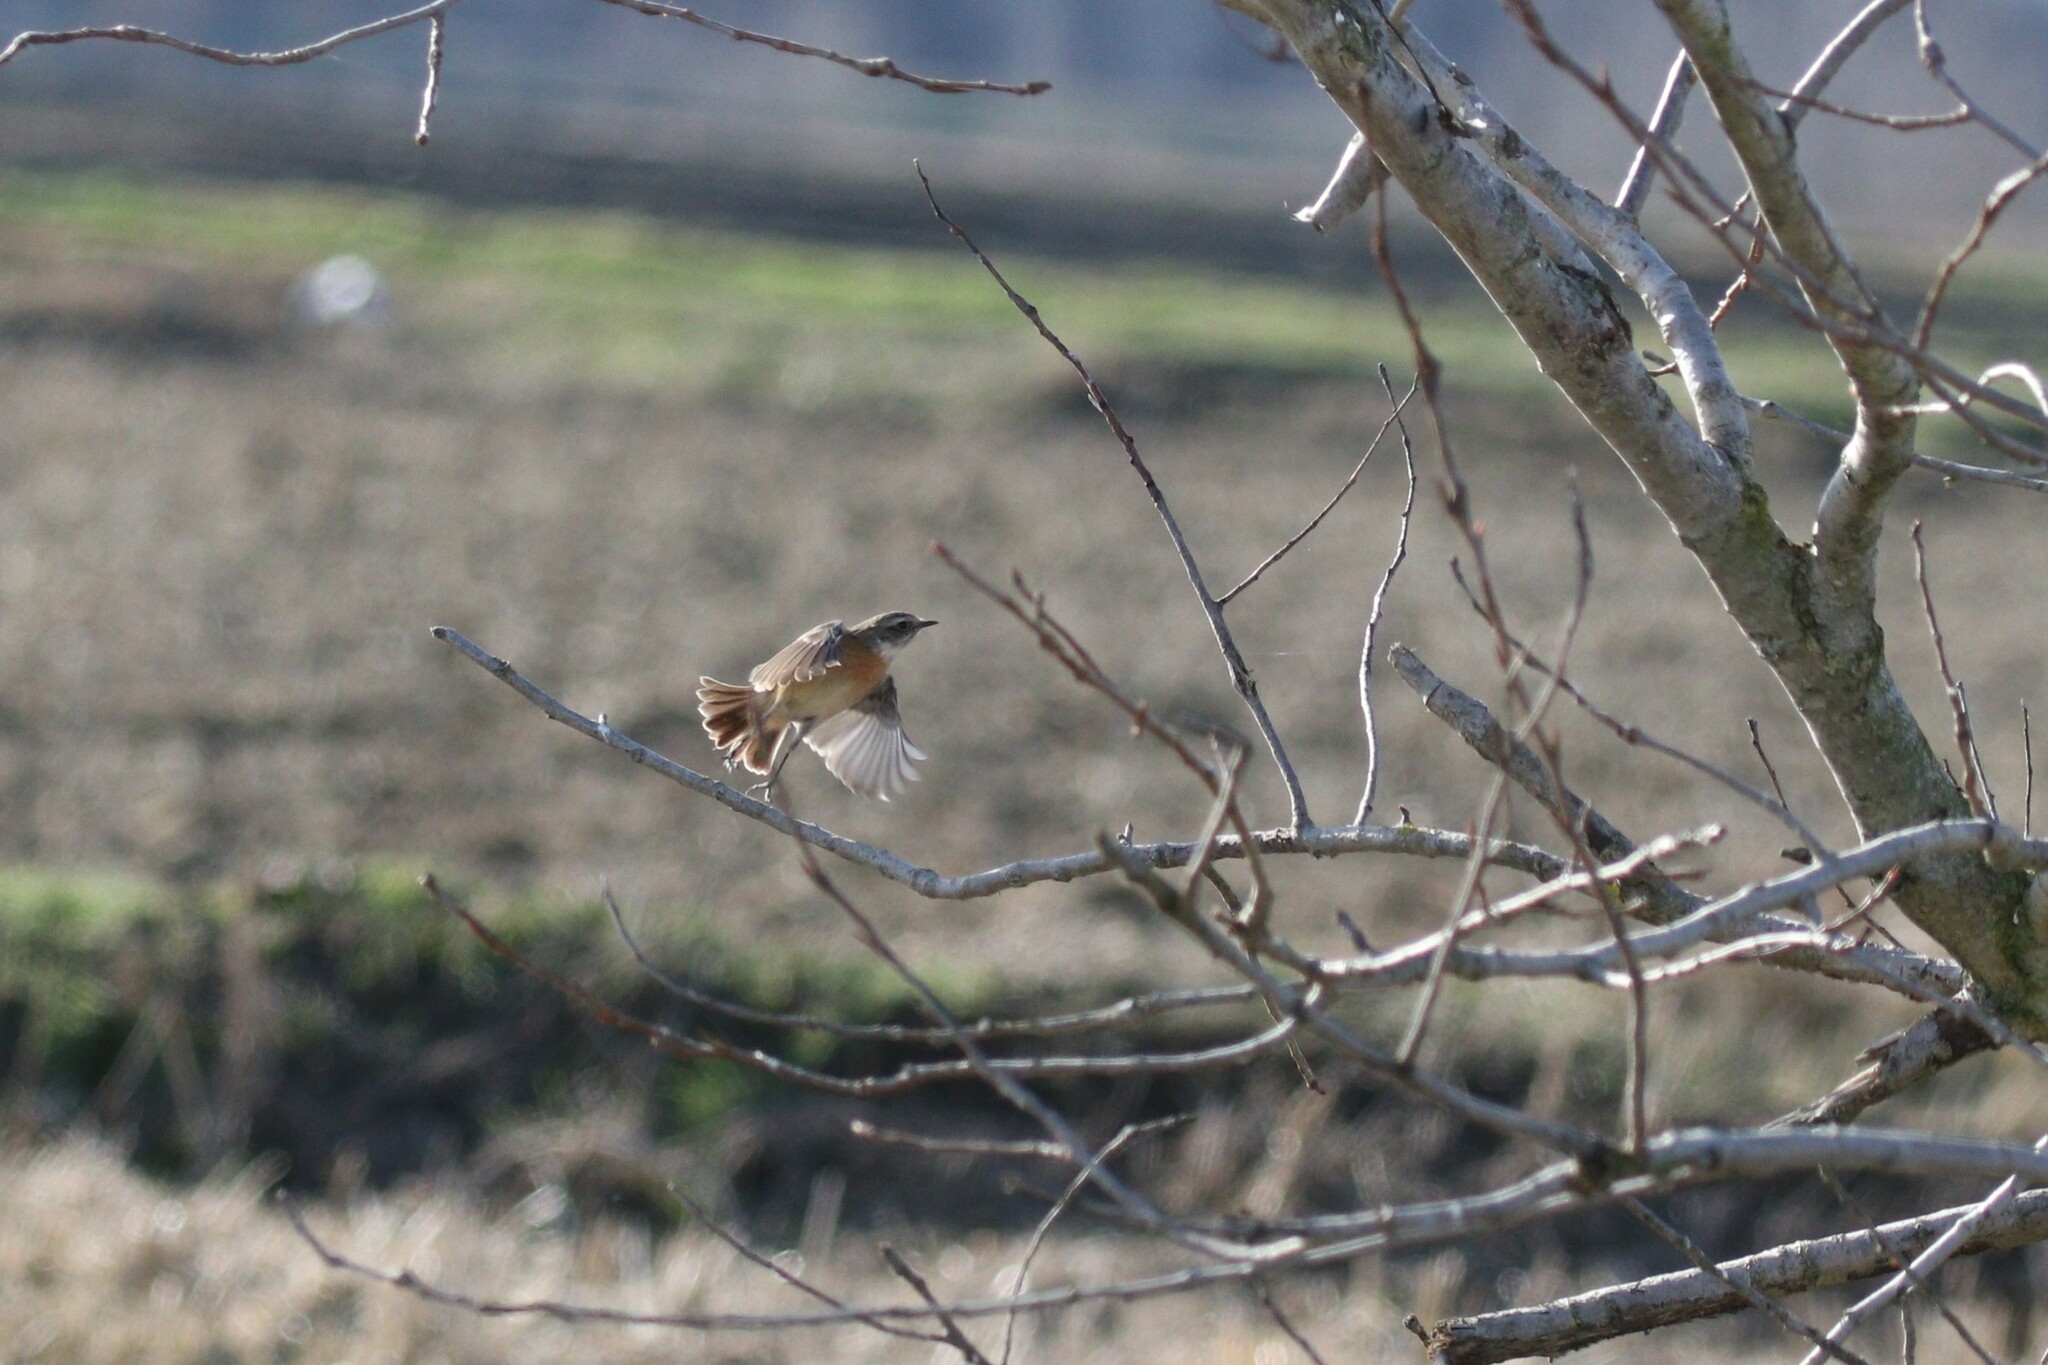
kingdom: Animalia
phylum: Chordata
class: Aves
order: Passeriformes
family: Muscicapidae
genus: Saxicola
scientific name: Saxicola rubicola
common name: European stonechat
